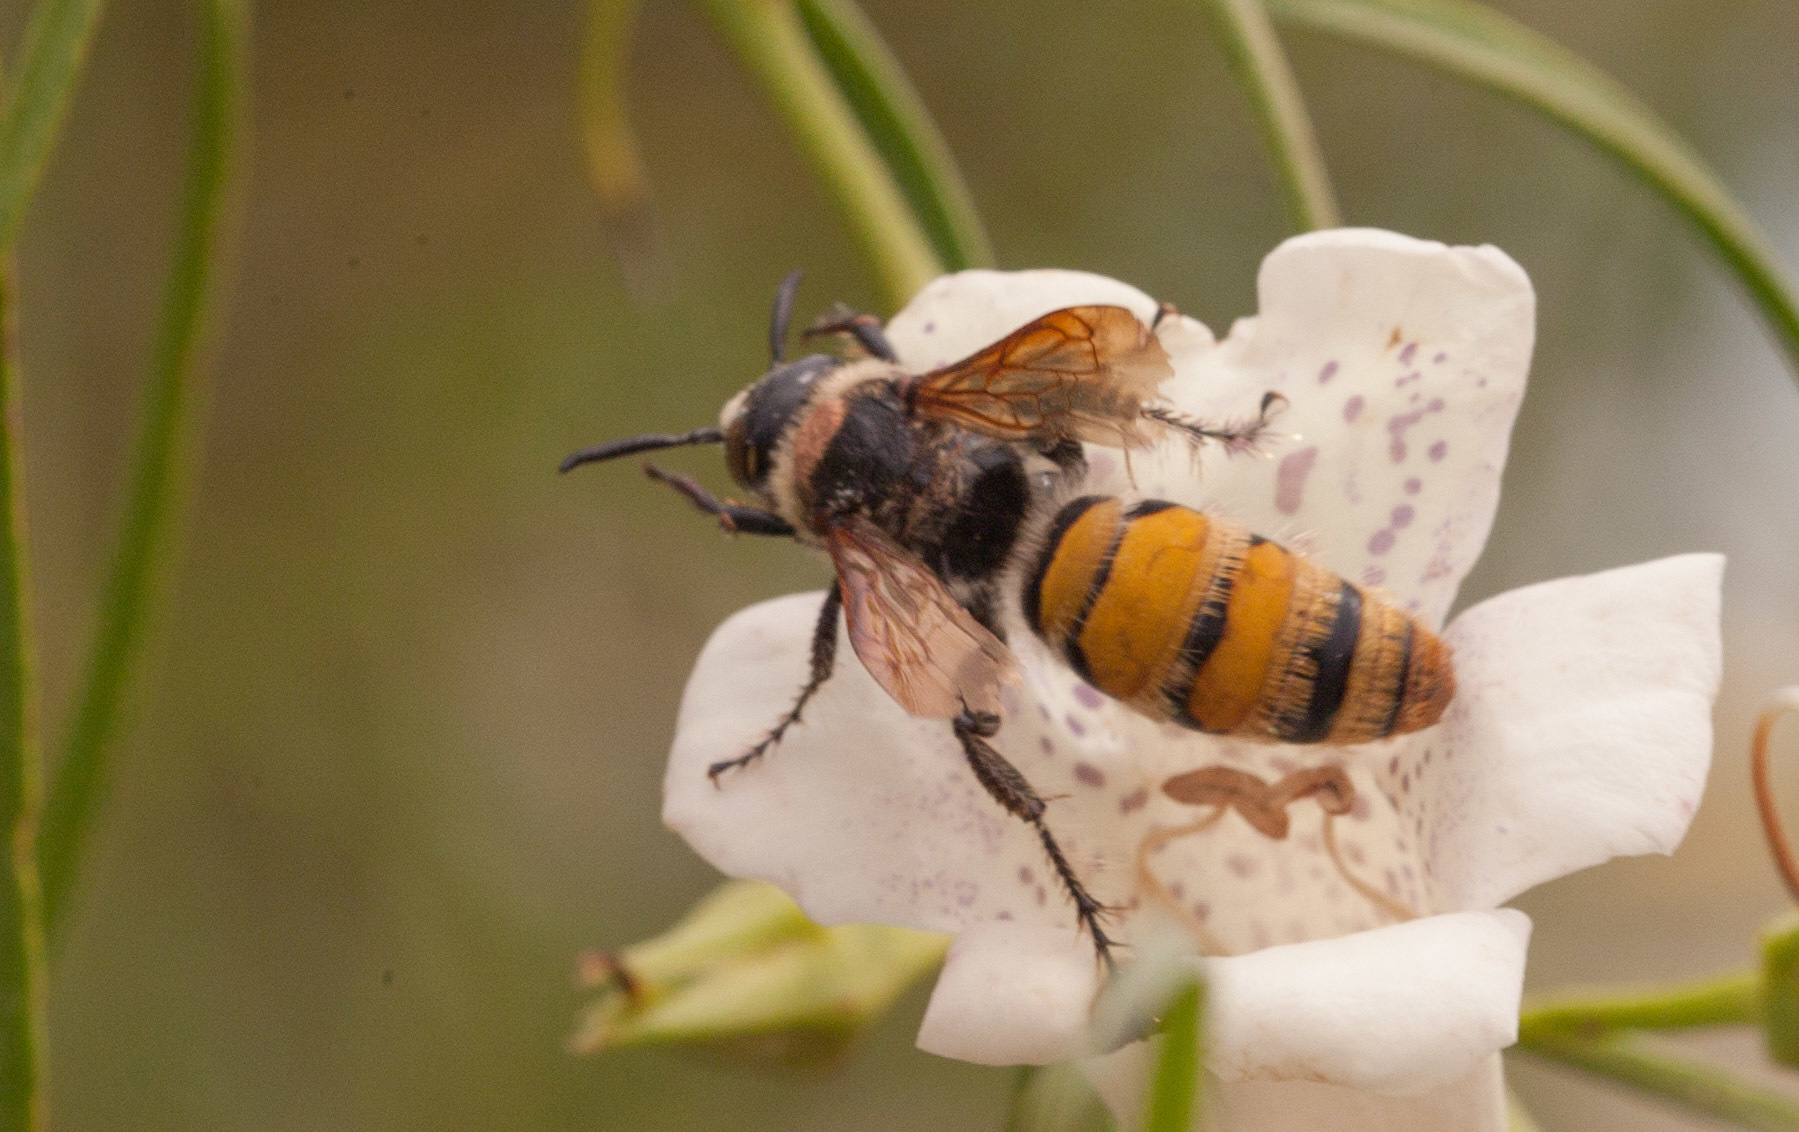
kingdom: Animalia
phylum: Arthropoda
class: Insecta
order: Hymenoptera
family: Scoliidae
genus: Radumeris
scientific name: Radumeris tasmaniensis
